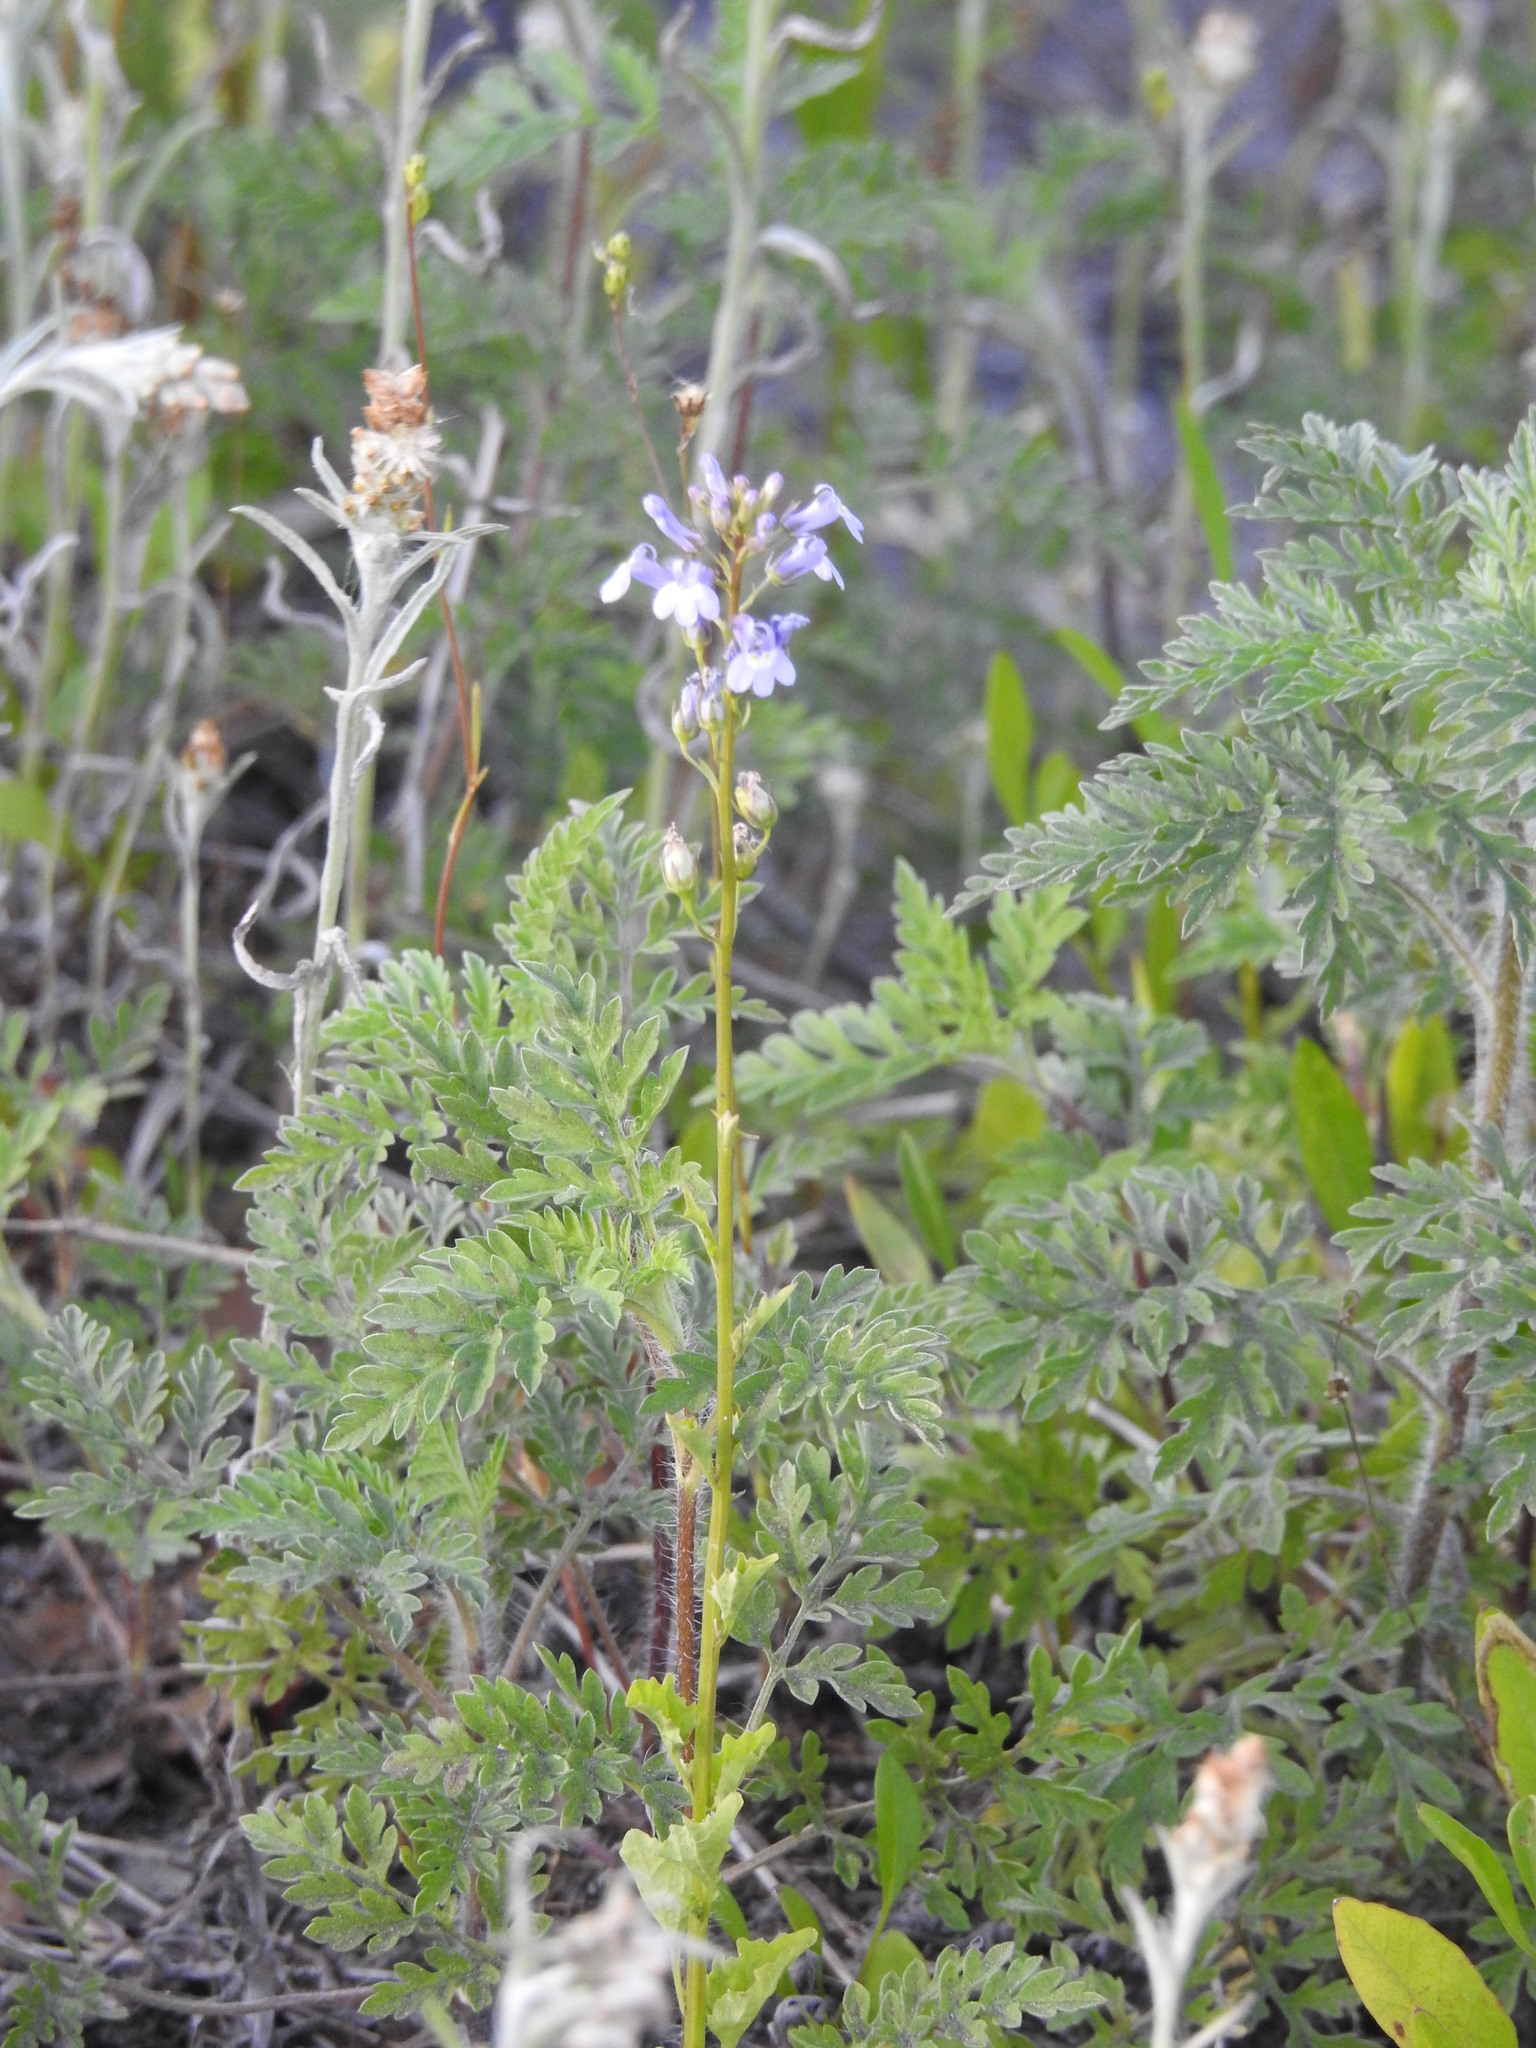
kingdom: Plantae
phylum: Tracheophyta
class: Magnoliopsida
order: Asterales
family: Campanulaceae
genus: Lobelia
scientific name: Lobelia homophylla
